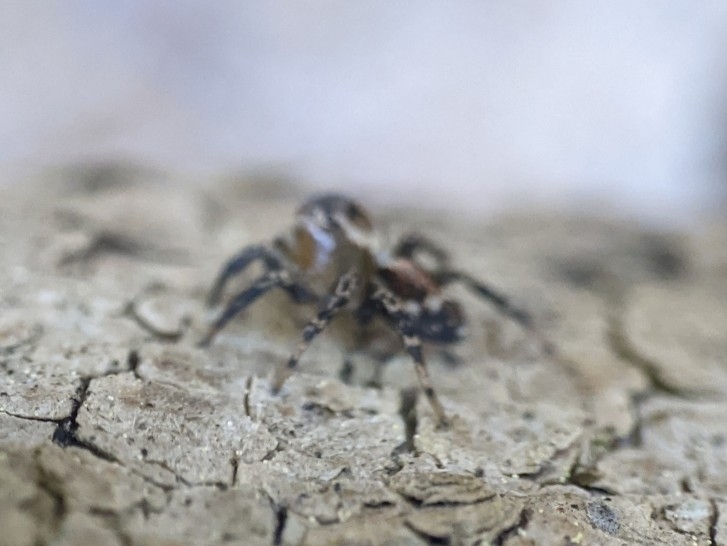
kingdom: Animalia
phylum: Arthropoda
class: Arachnida
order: Araneae
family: Salticidae
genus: Naphrys
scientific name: Naphrys pulex
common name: Flea jumping spider
